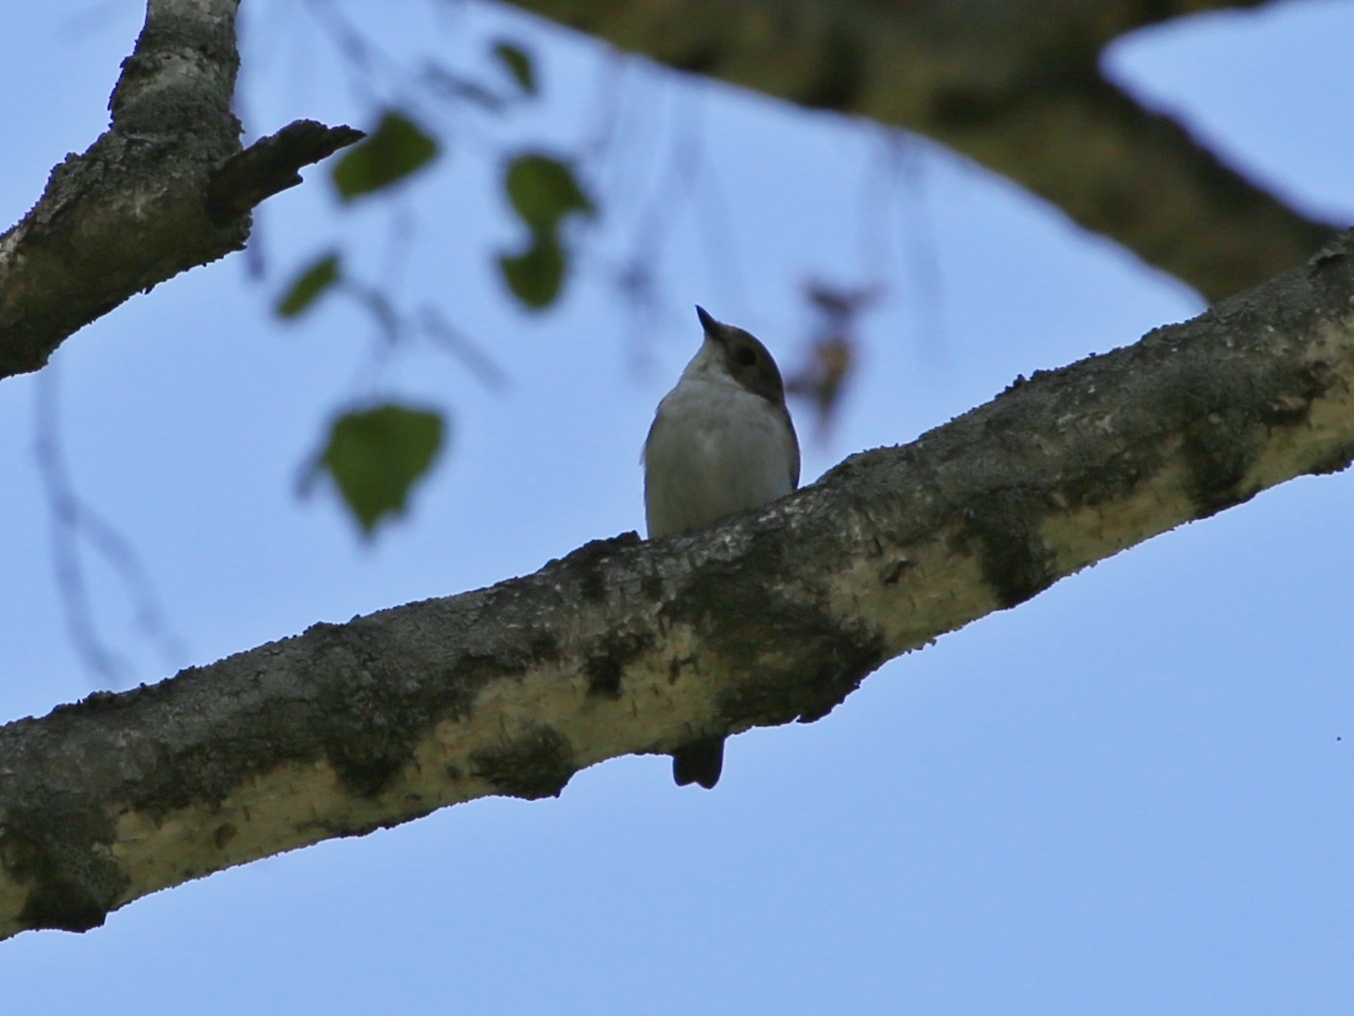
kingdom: Animalia
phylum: Chordata
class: Aves
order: Passeriformes
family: Muscicapidae
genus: Ficedula
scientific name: Ficedula hypoleuca
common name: European pied flycatcher
